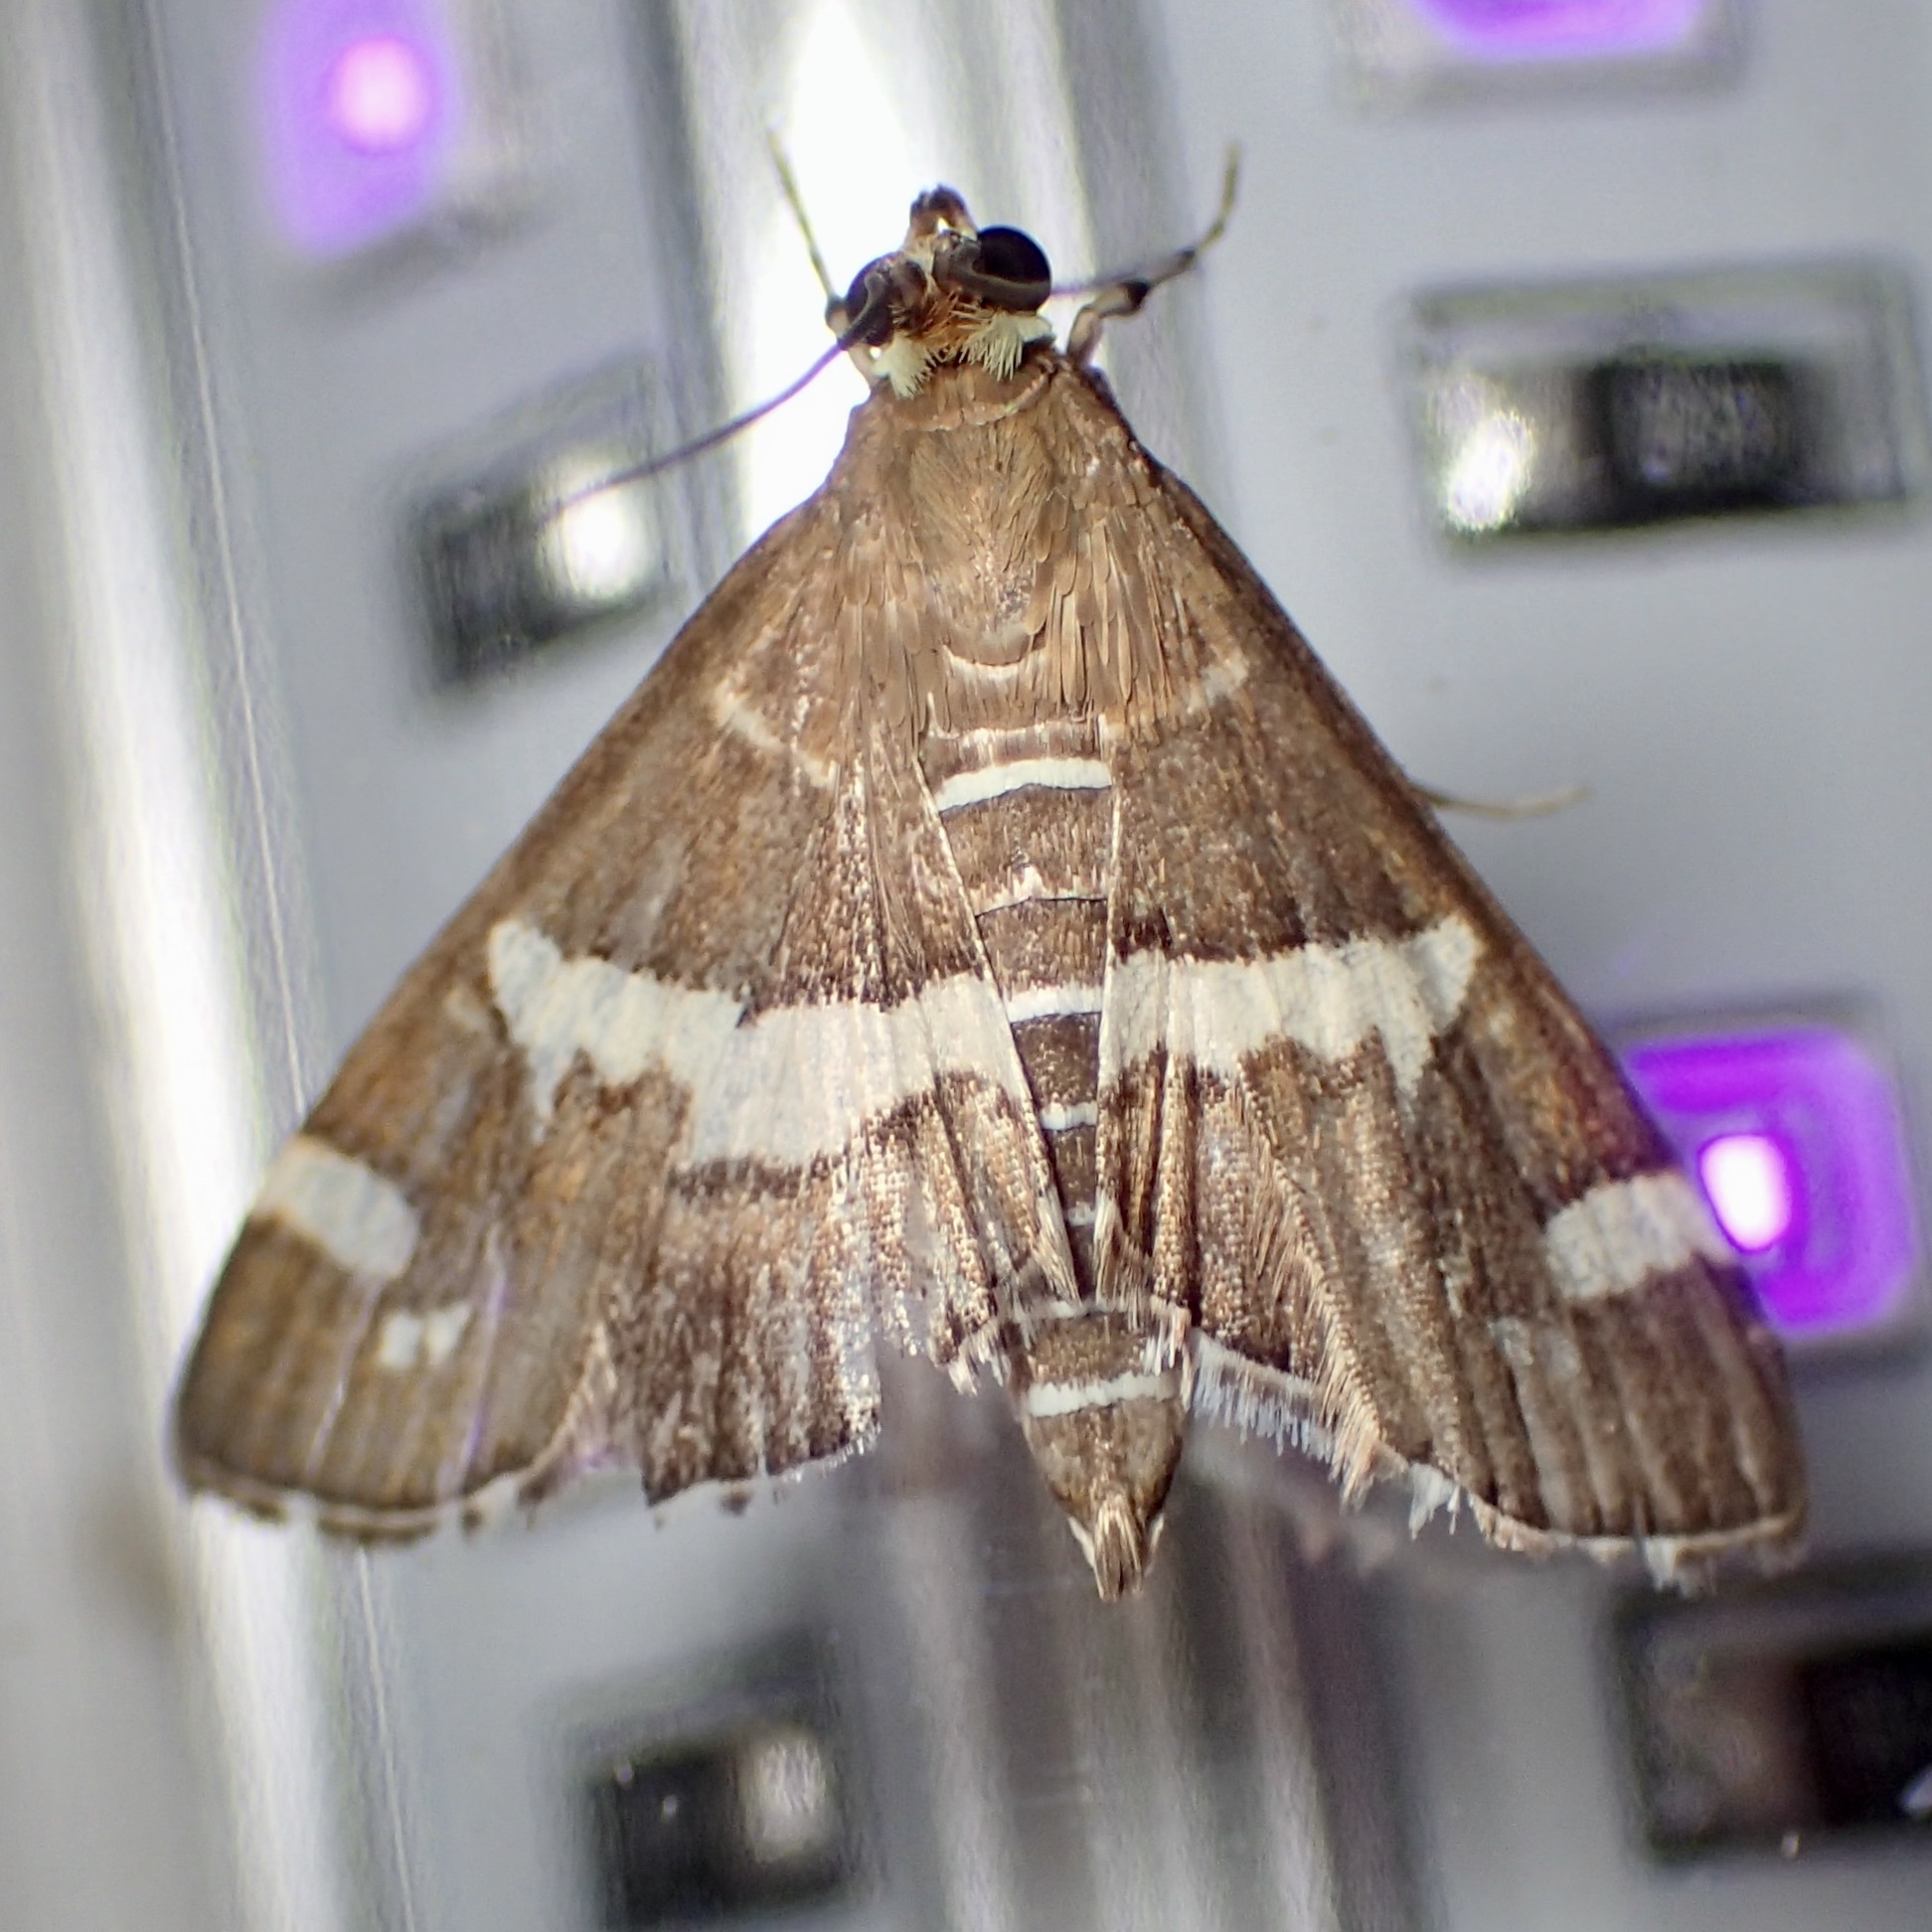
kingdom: Animalia
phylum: Arthropoda
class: Insecta
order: Lepidoptera
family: Crambidae
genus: Spoladea
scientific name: Spoladea recurvalis
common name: Beet webworm moth
